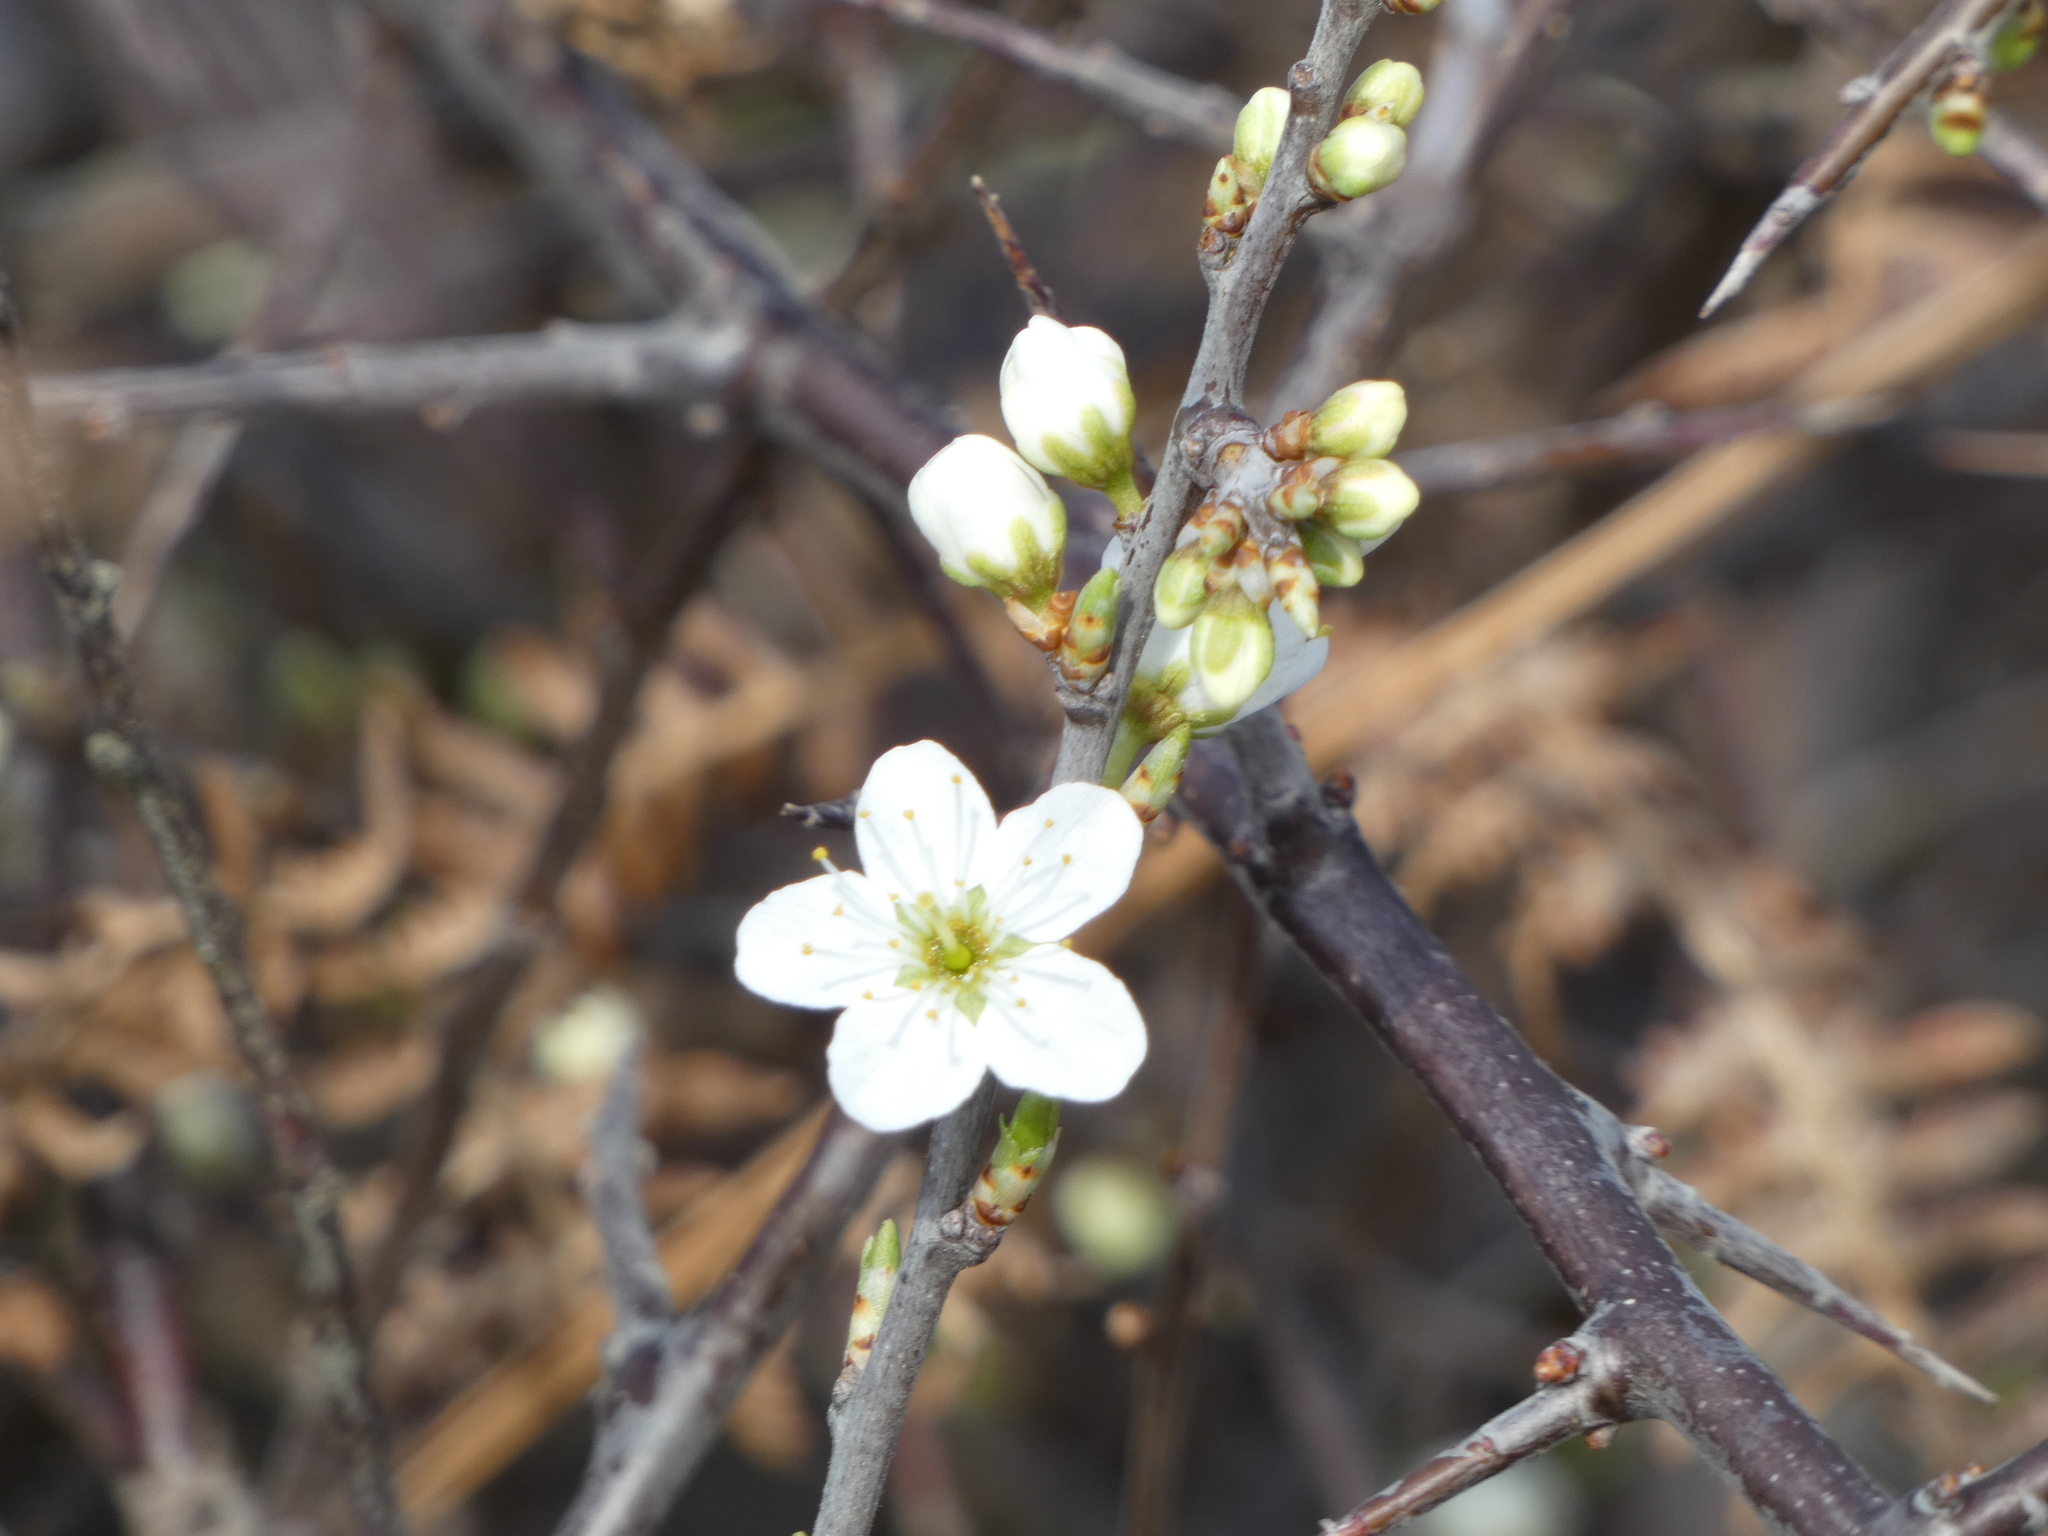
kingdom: Plantae
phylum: Tracheophyta
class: Magnoliopsida
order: Rosales
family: Rosaceae
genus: Prunus
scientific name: Prunus spinosa
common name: Blackthorn
